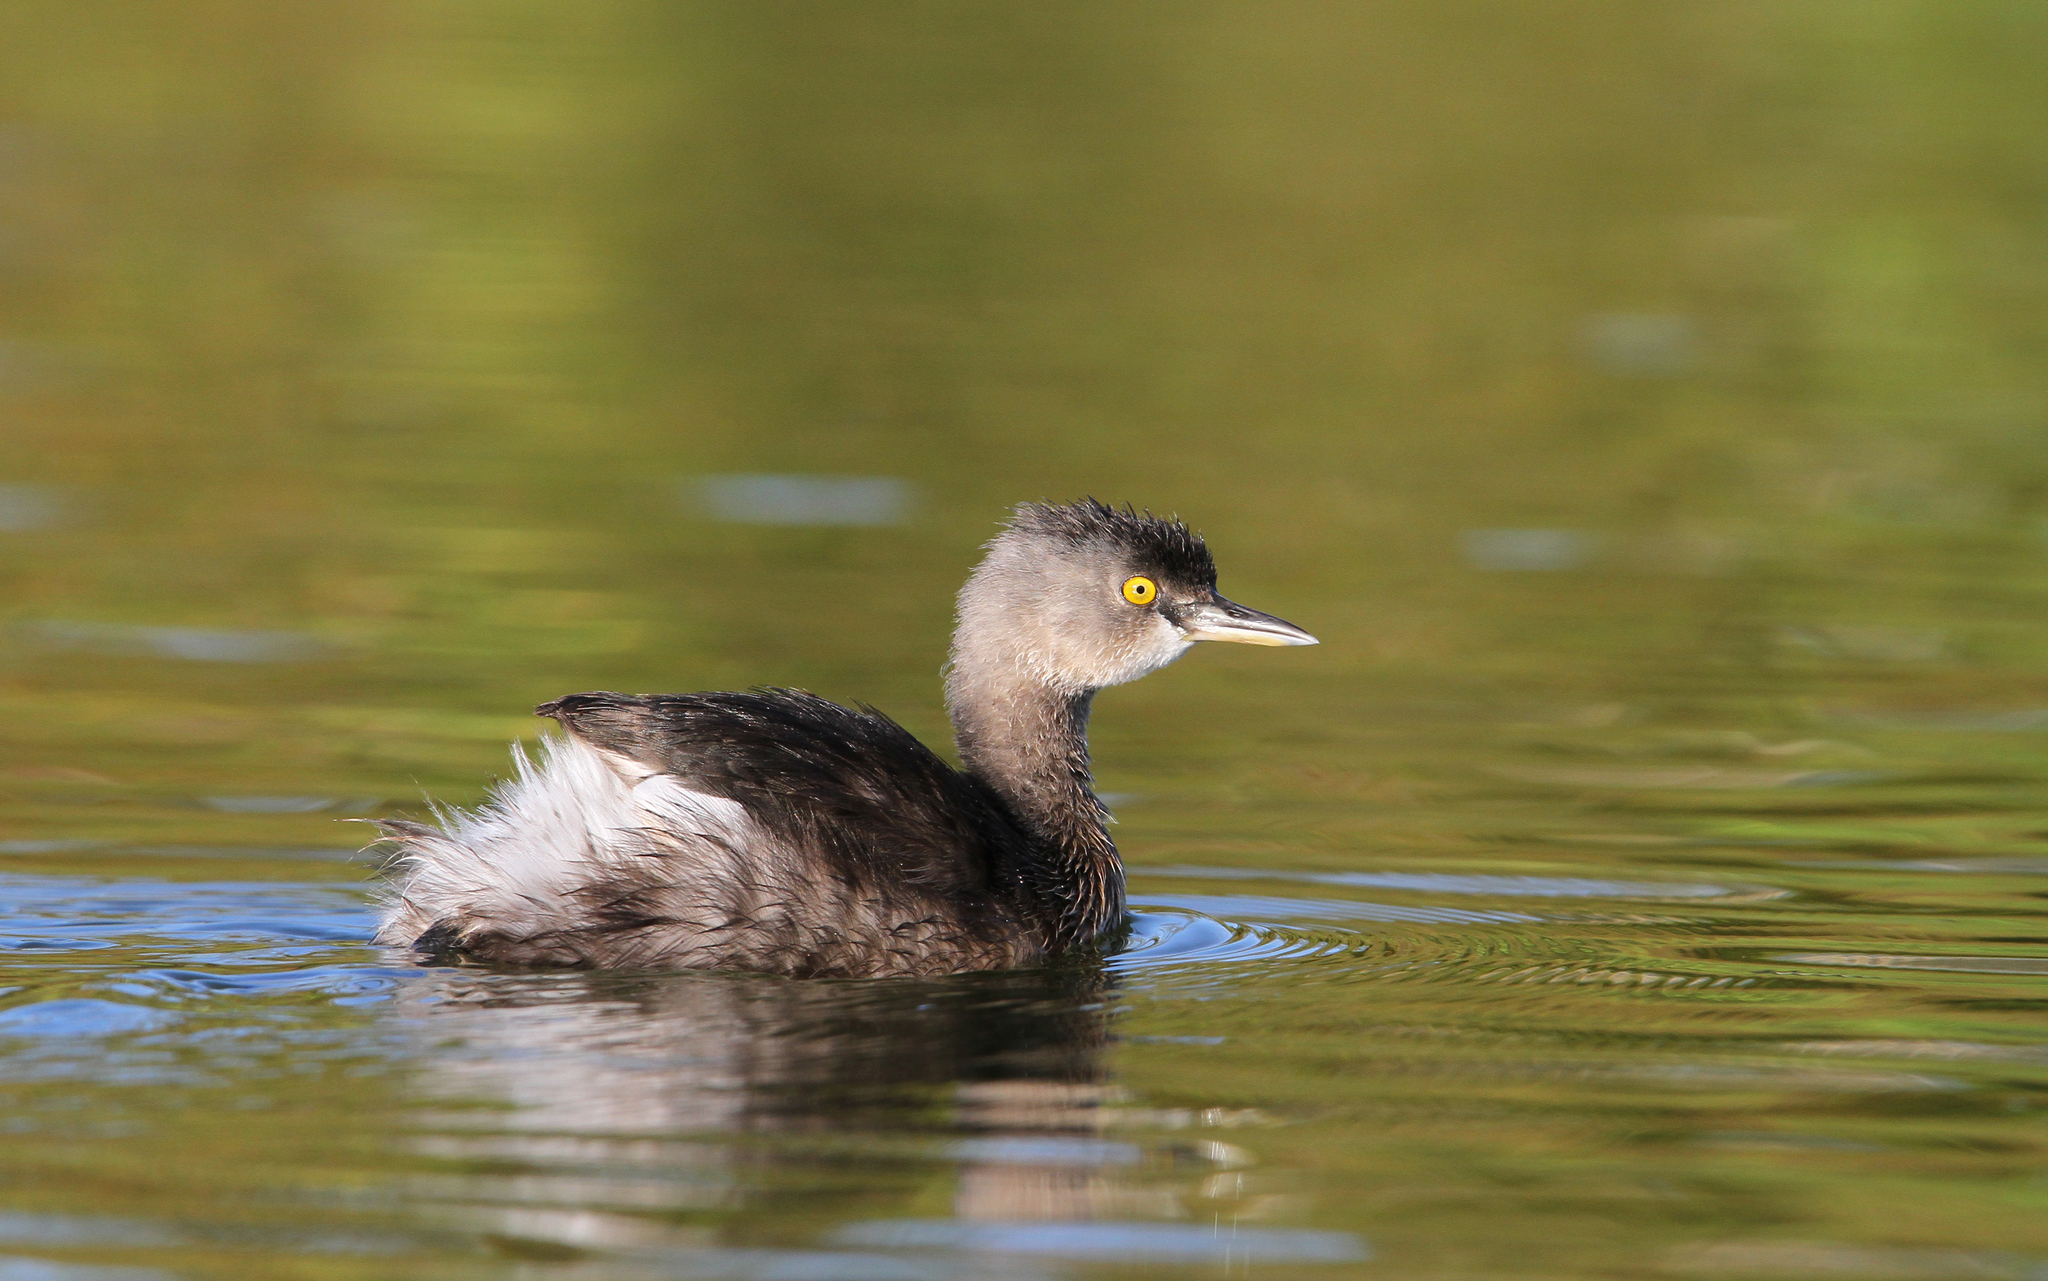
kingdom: Animalia
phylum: Chordata
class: Aves
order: Podicipediformes
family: Podicipedidae
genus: Tachybaptus
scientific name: Tachybaptus dominicus
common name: Least grebe
